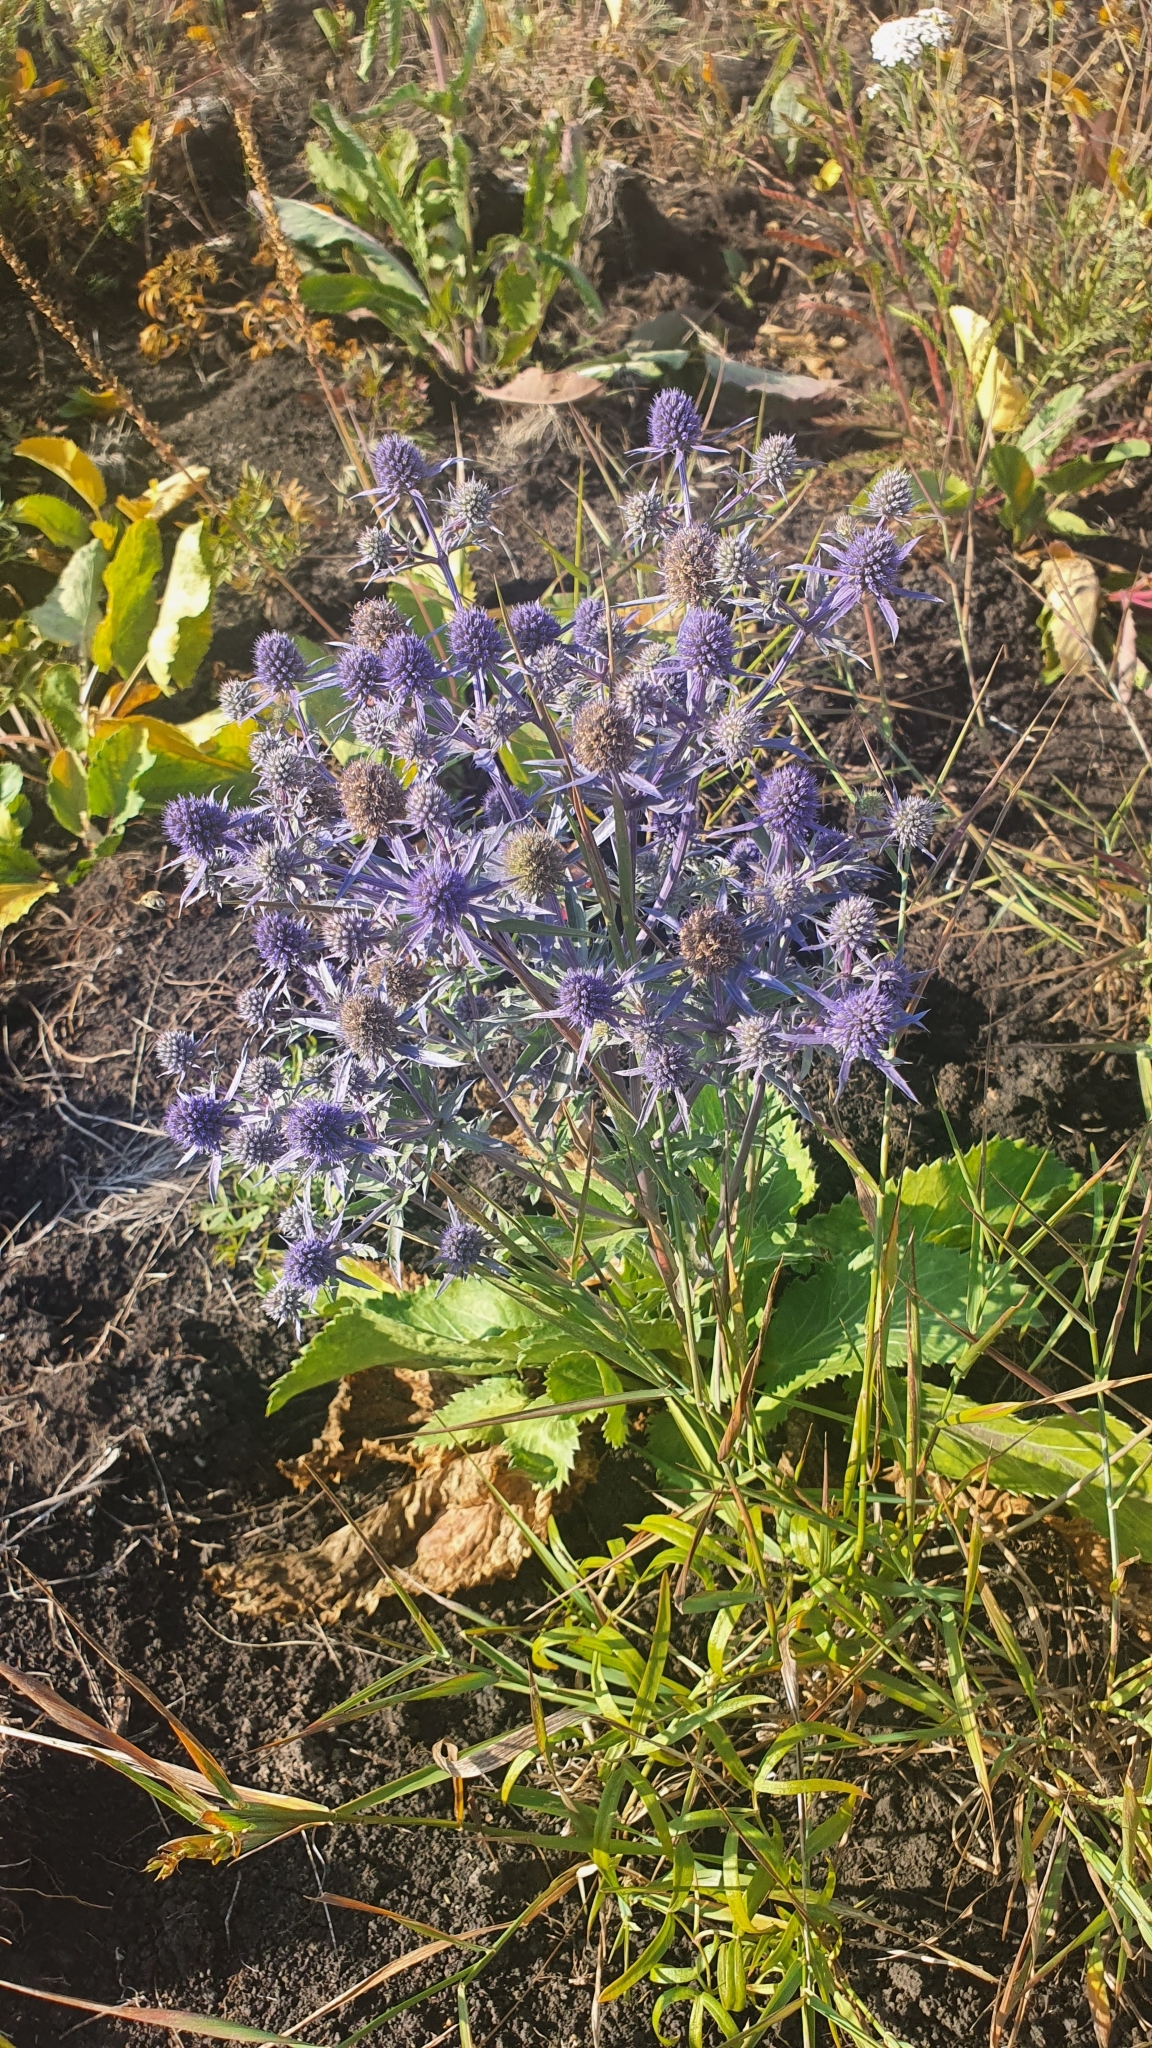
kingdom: Plantae
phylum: Tracheophyta
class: Magnoliopsida
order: Apiales
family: Apiaceae
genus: Eryngium
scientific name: Eryngium planum
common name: Blue eryngo
